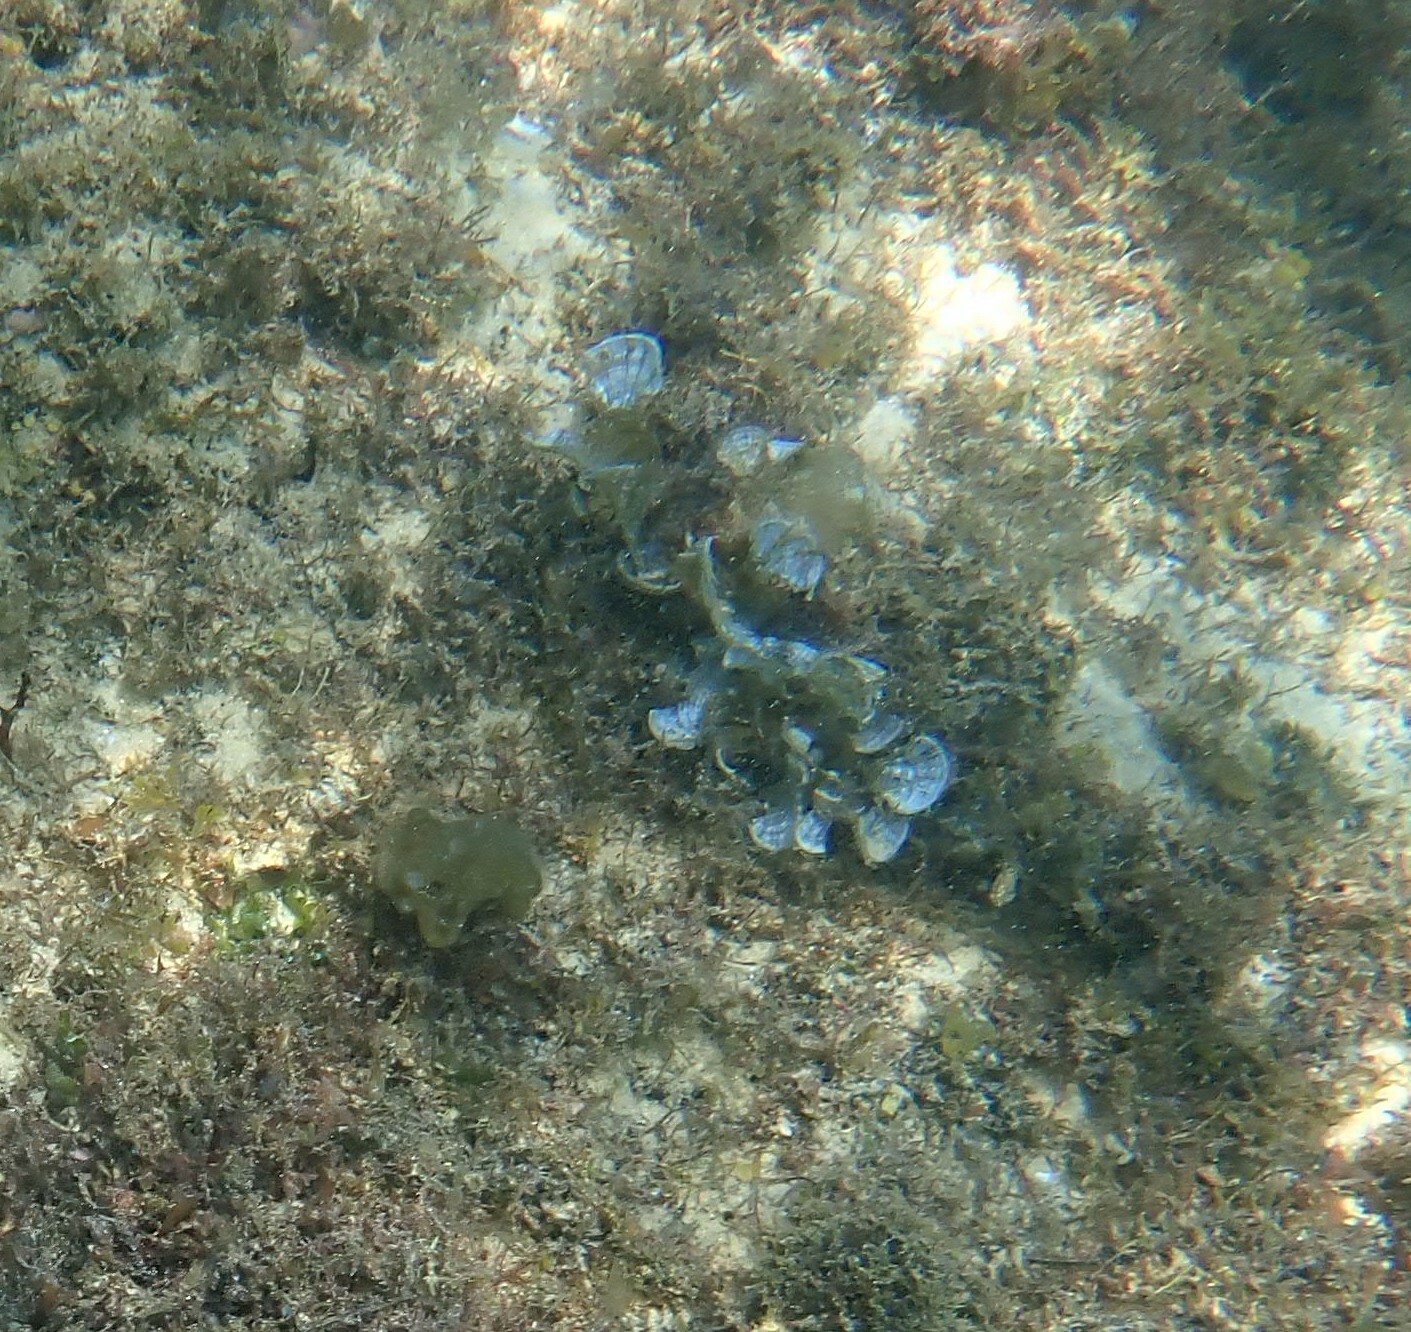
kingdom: Chromista
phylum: Ochrophyta
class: Phaeophyceae
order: Dictyotales
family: Dictyotaceae
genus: Padina
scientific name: Padina pavonica
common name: Turkey feather alga
